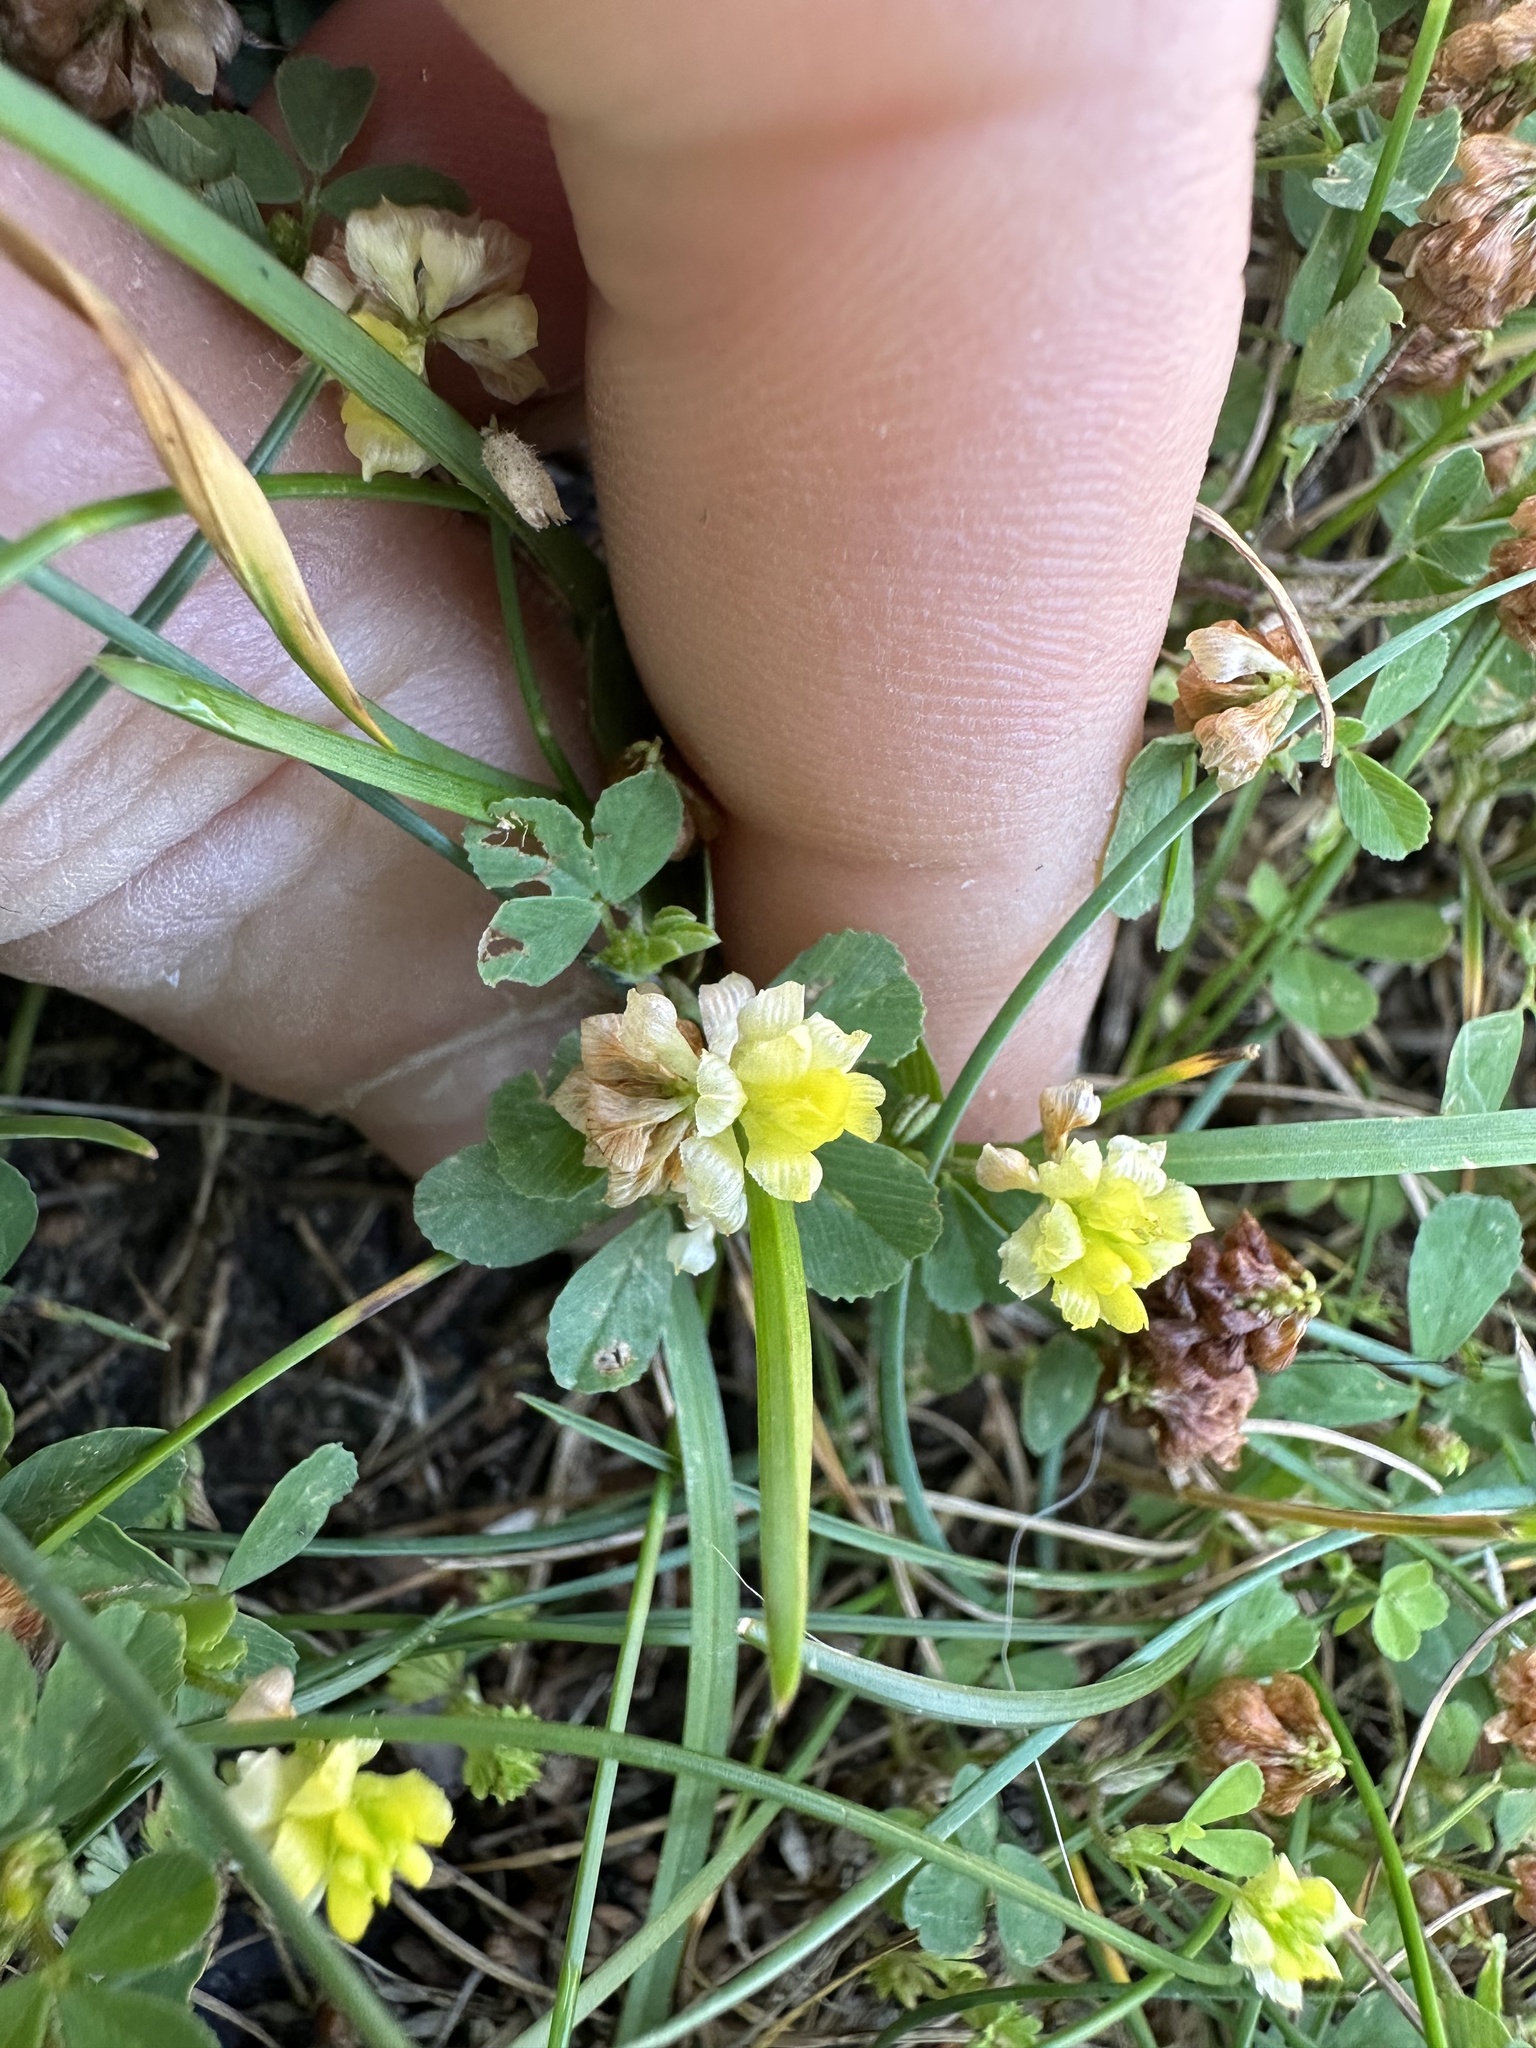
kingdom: Plantae
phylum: Tracheophyta
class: Magnoliopsida
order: Fabales
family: Fabaceae
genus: Trifolium
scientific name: Trifolium campestre
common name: Field clover
